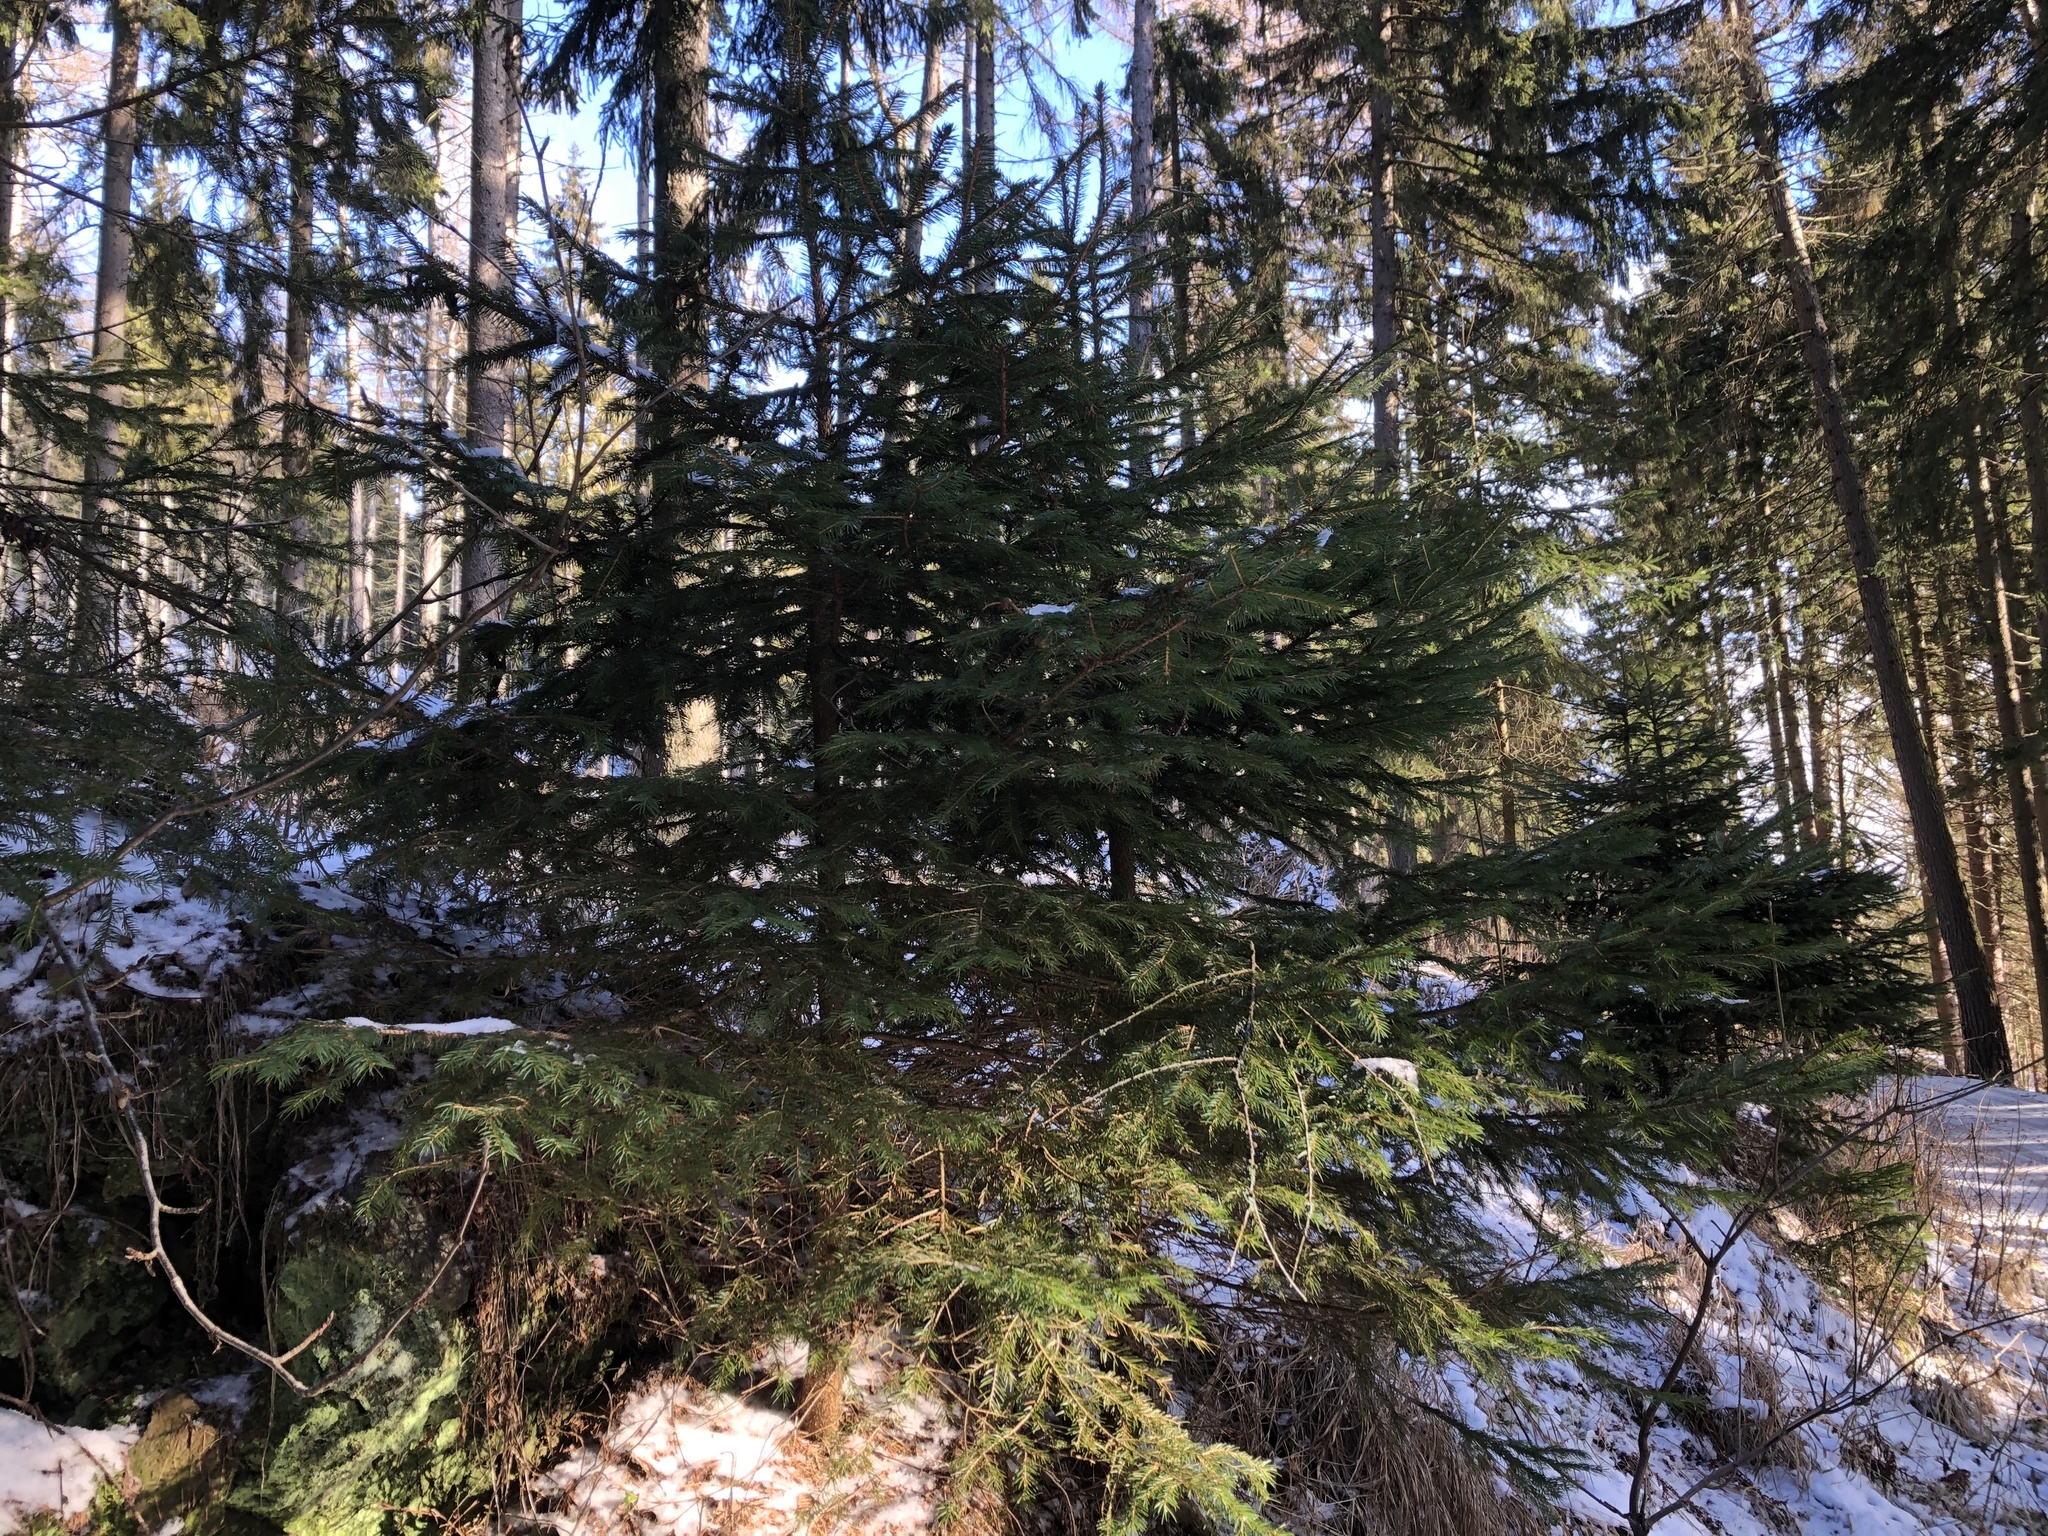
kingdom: Plantae
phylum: Tracheophyta
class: Pinopsida
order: Pinales
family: Pinaceae
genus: Picea
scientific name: Picea abies
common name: Norway spruce
